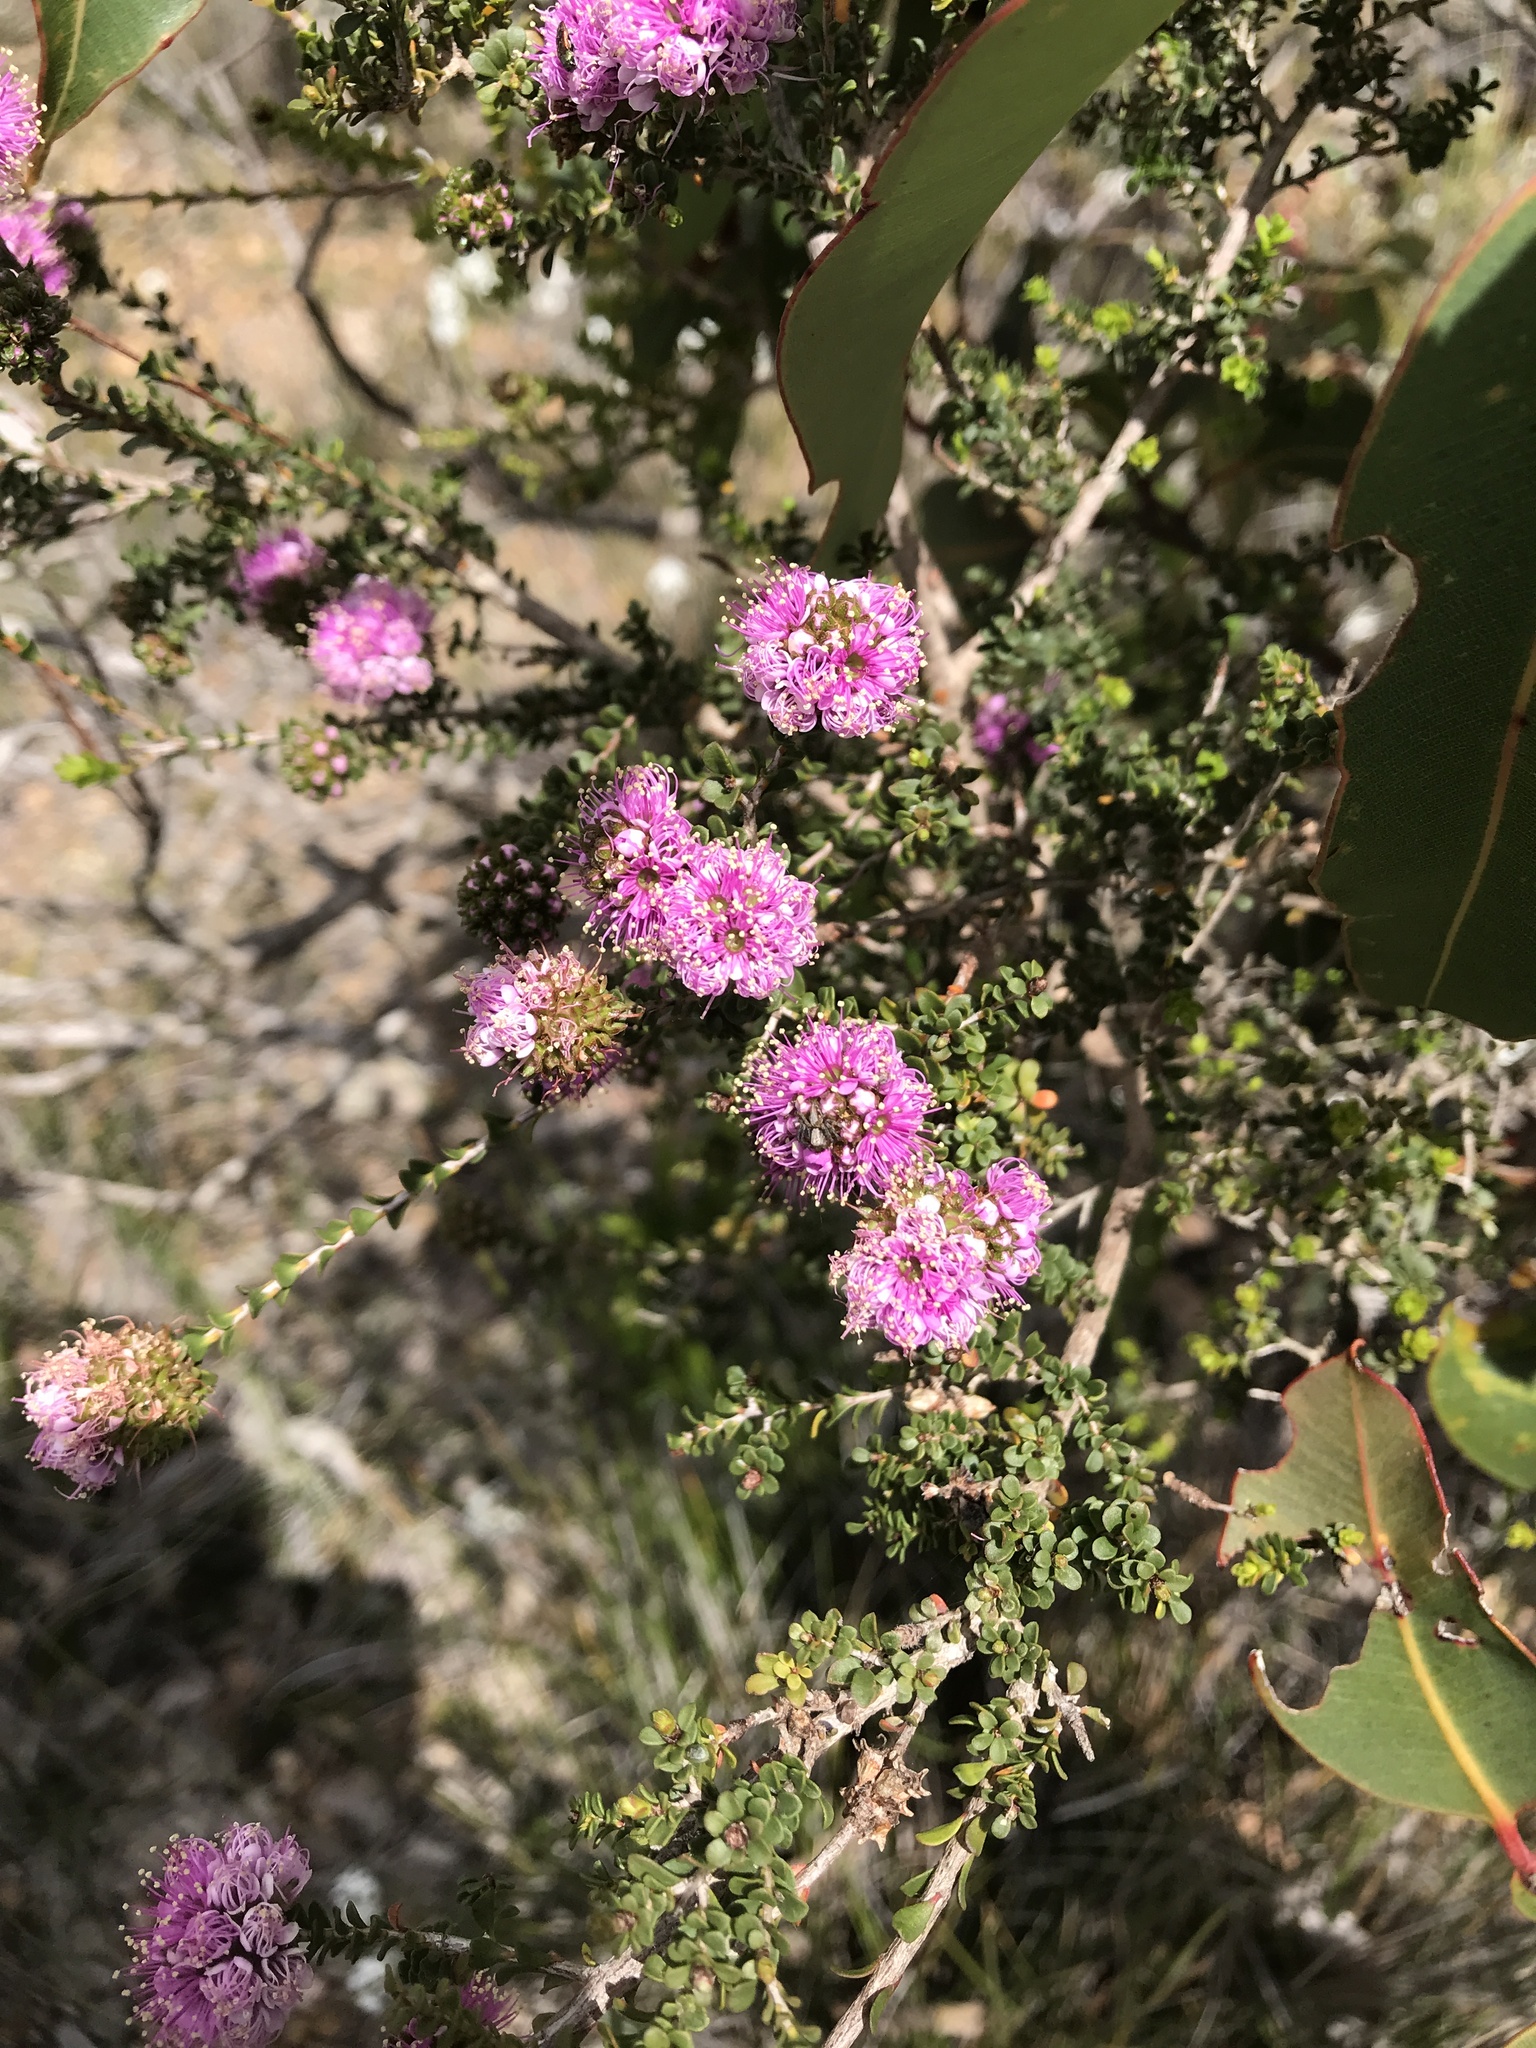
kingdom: Plantae
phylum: Tracheophyta
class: Magnoliopsida
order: Myrtales
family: Myrtaceae
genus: Kunzea
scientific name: Kunzea recurva
